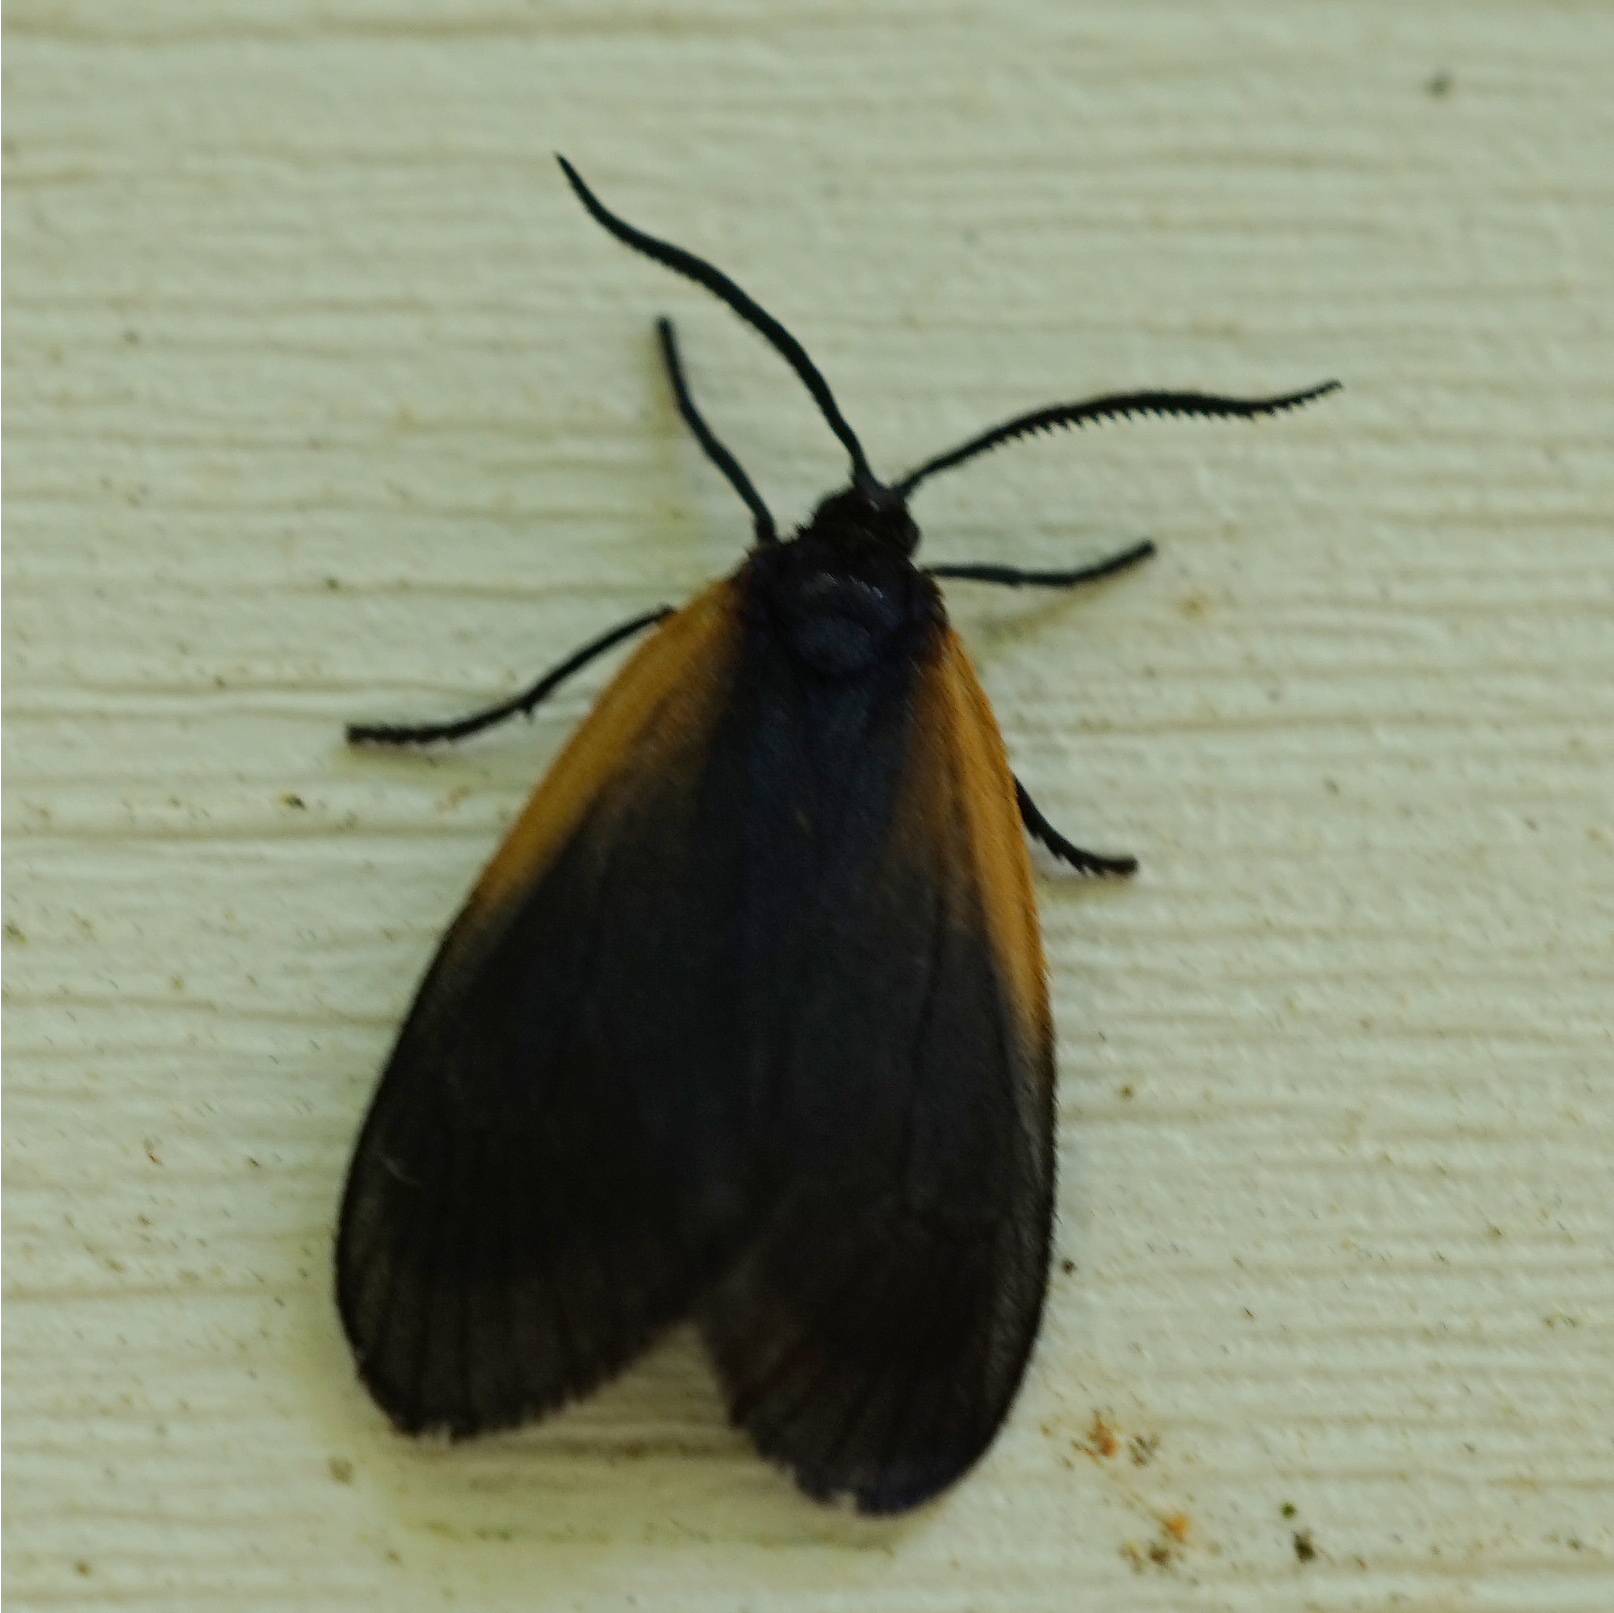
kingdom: Animalia
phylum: Arthropoda
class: Insecta
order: Lepidoptera
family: Zygaenidae
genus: Malthaca
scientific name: Malthaca dimidiata
